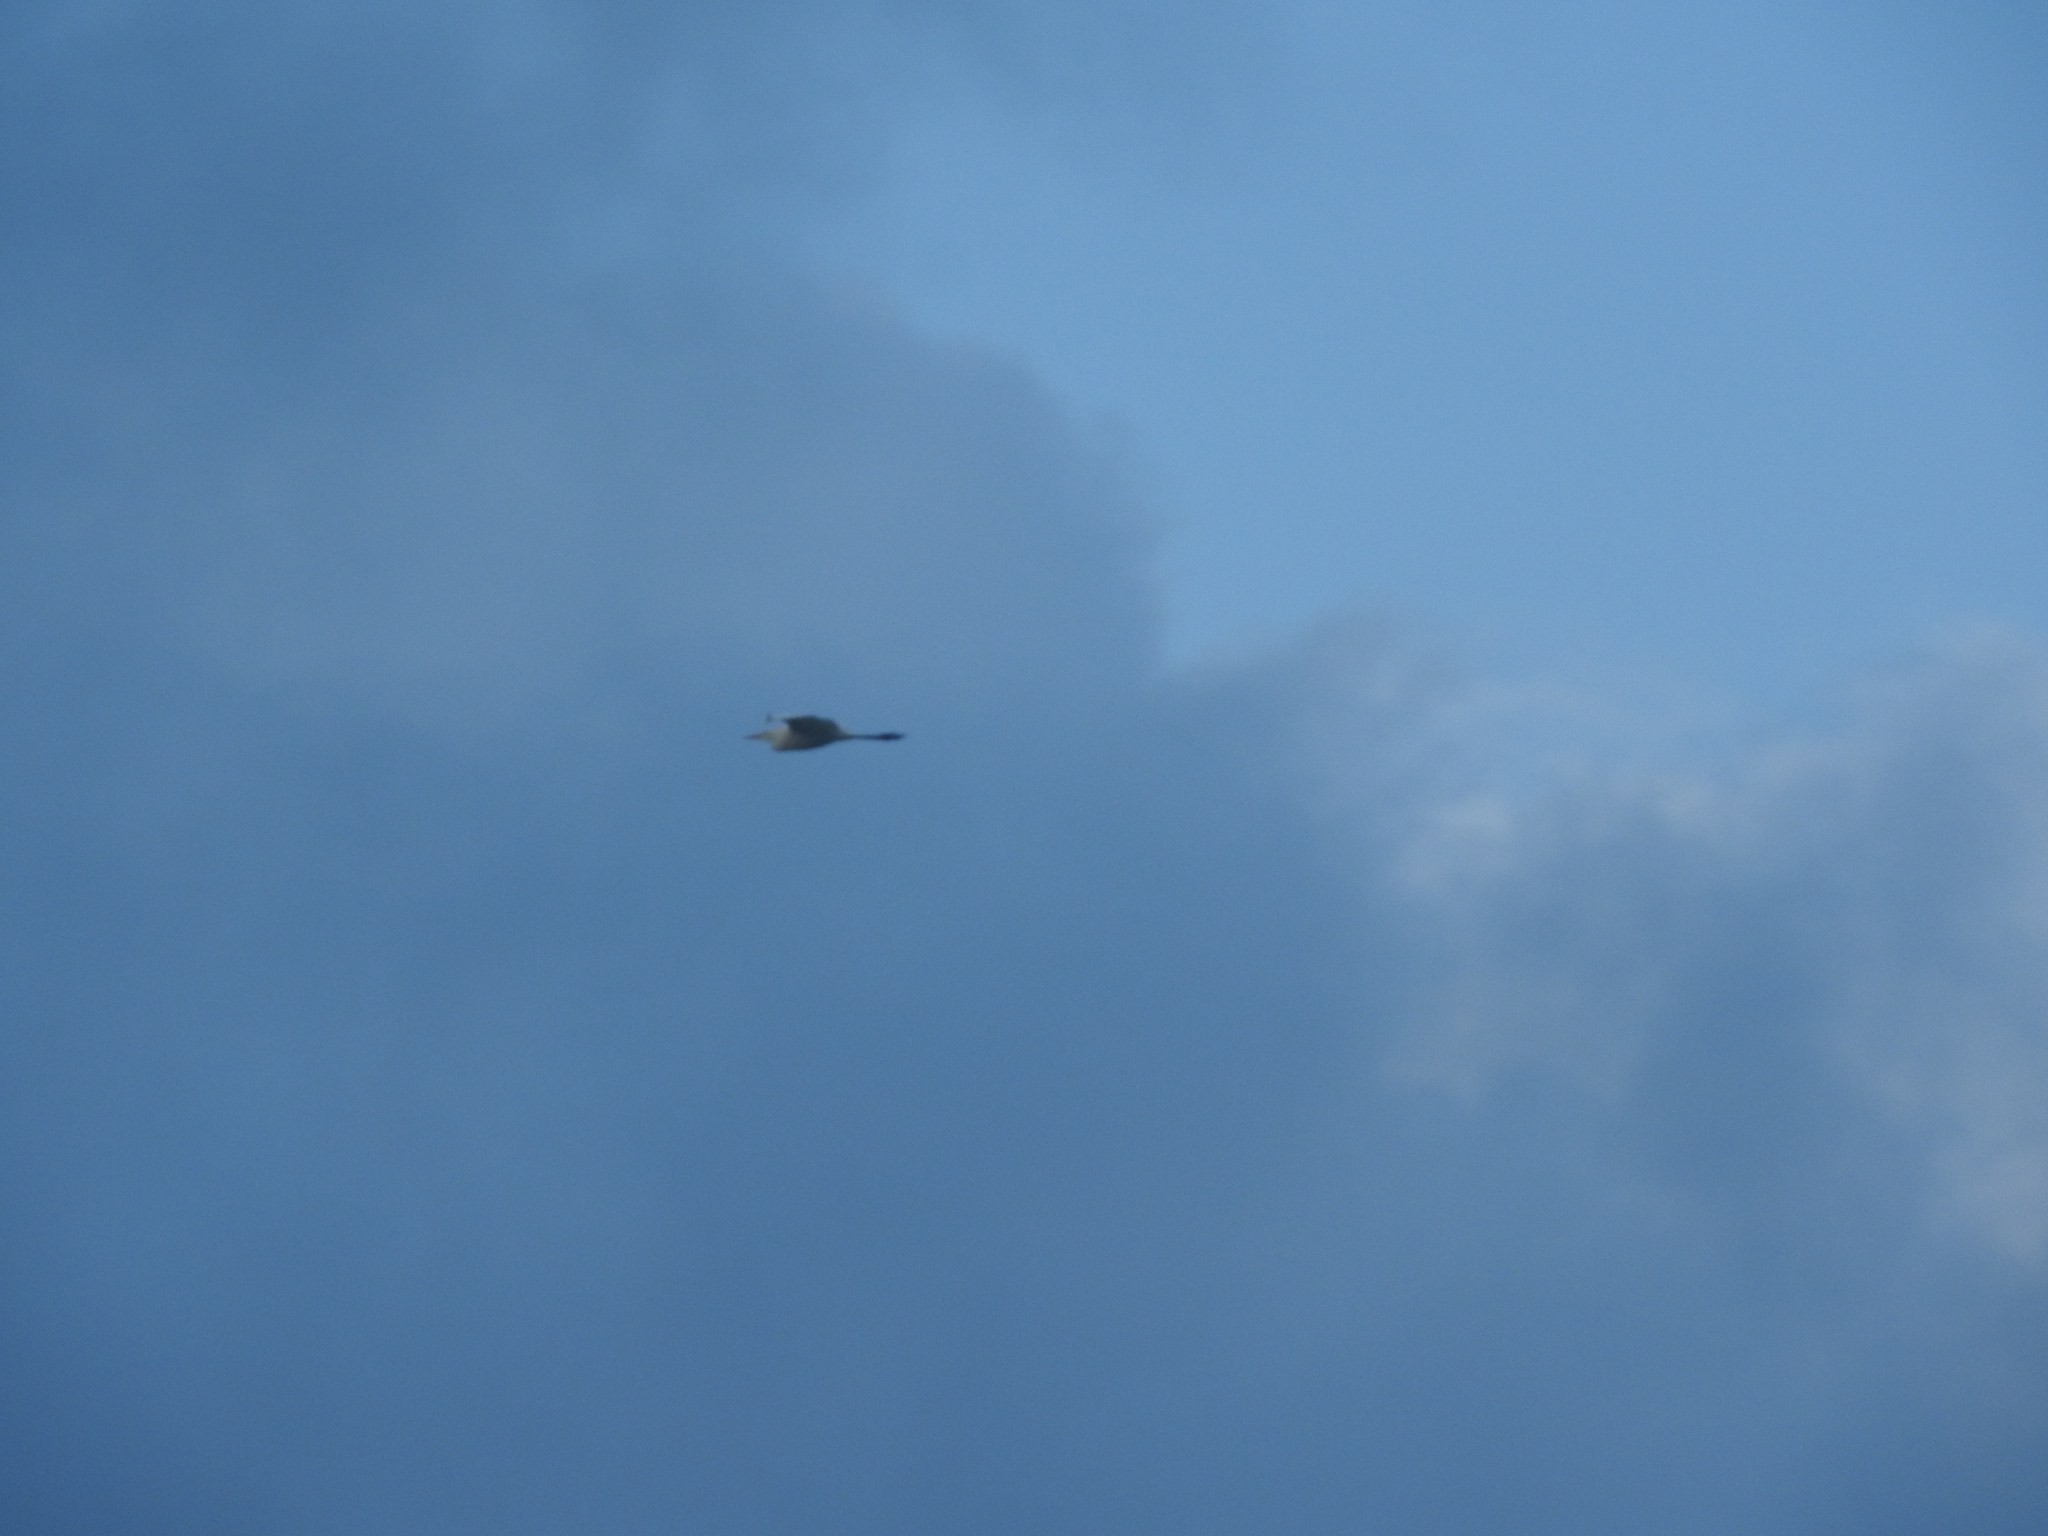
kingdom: Animalia
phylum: Chordata
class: Aves
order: Pelecaniformes
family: Ardeidae
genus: Ardea
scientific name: Ardea alba
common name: Great egret
